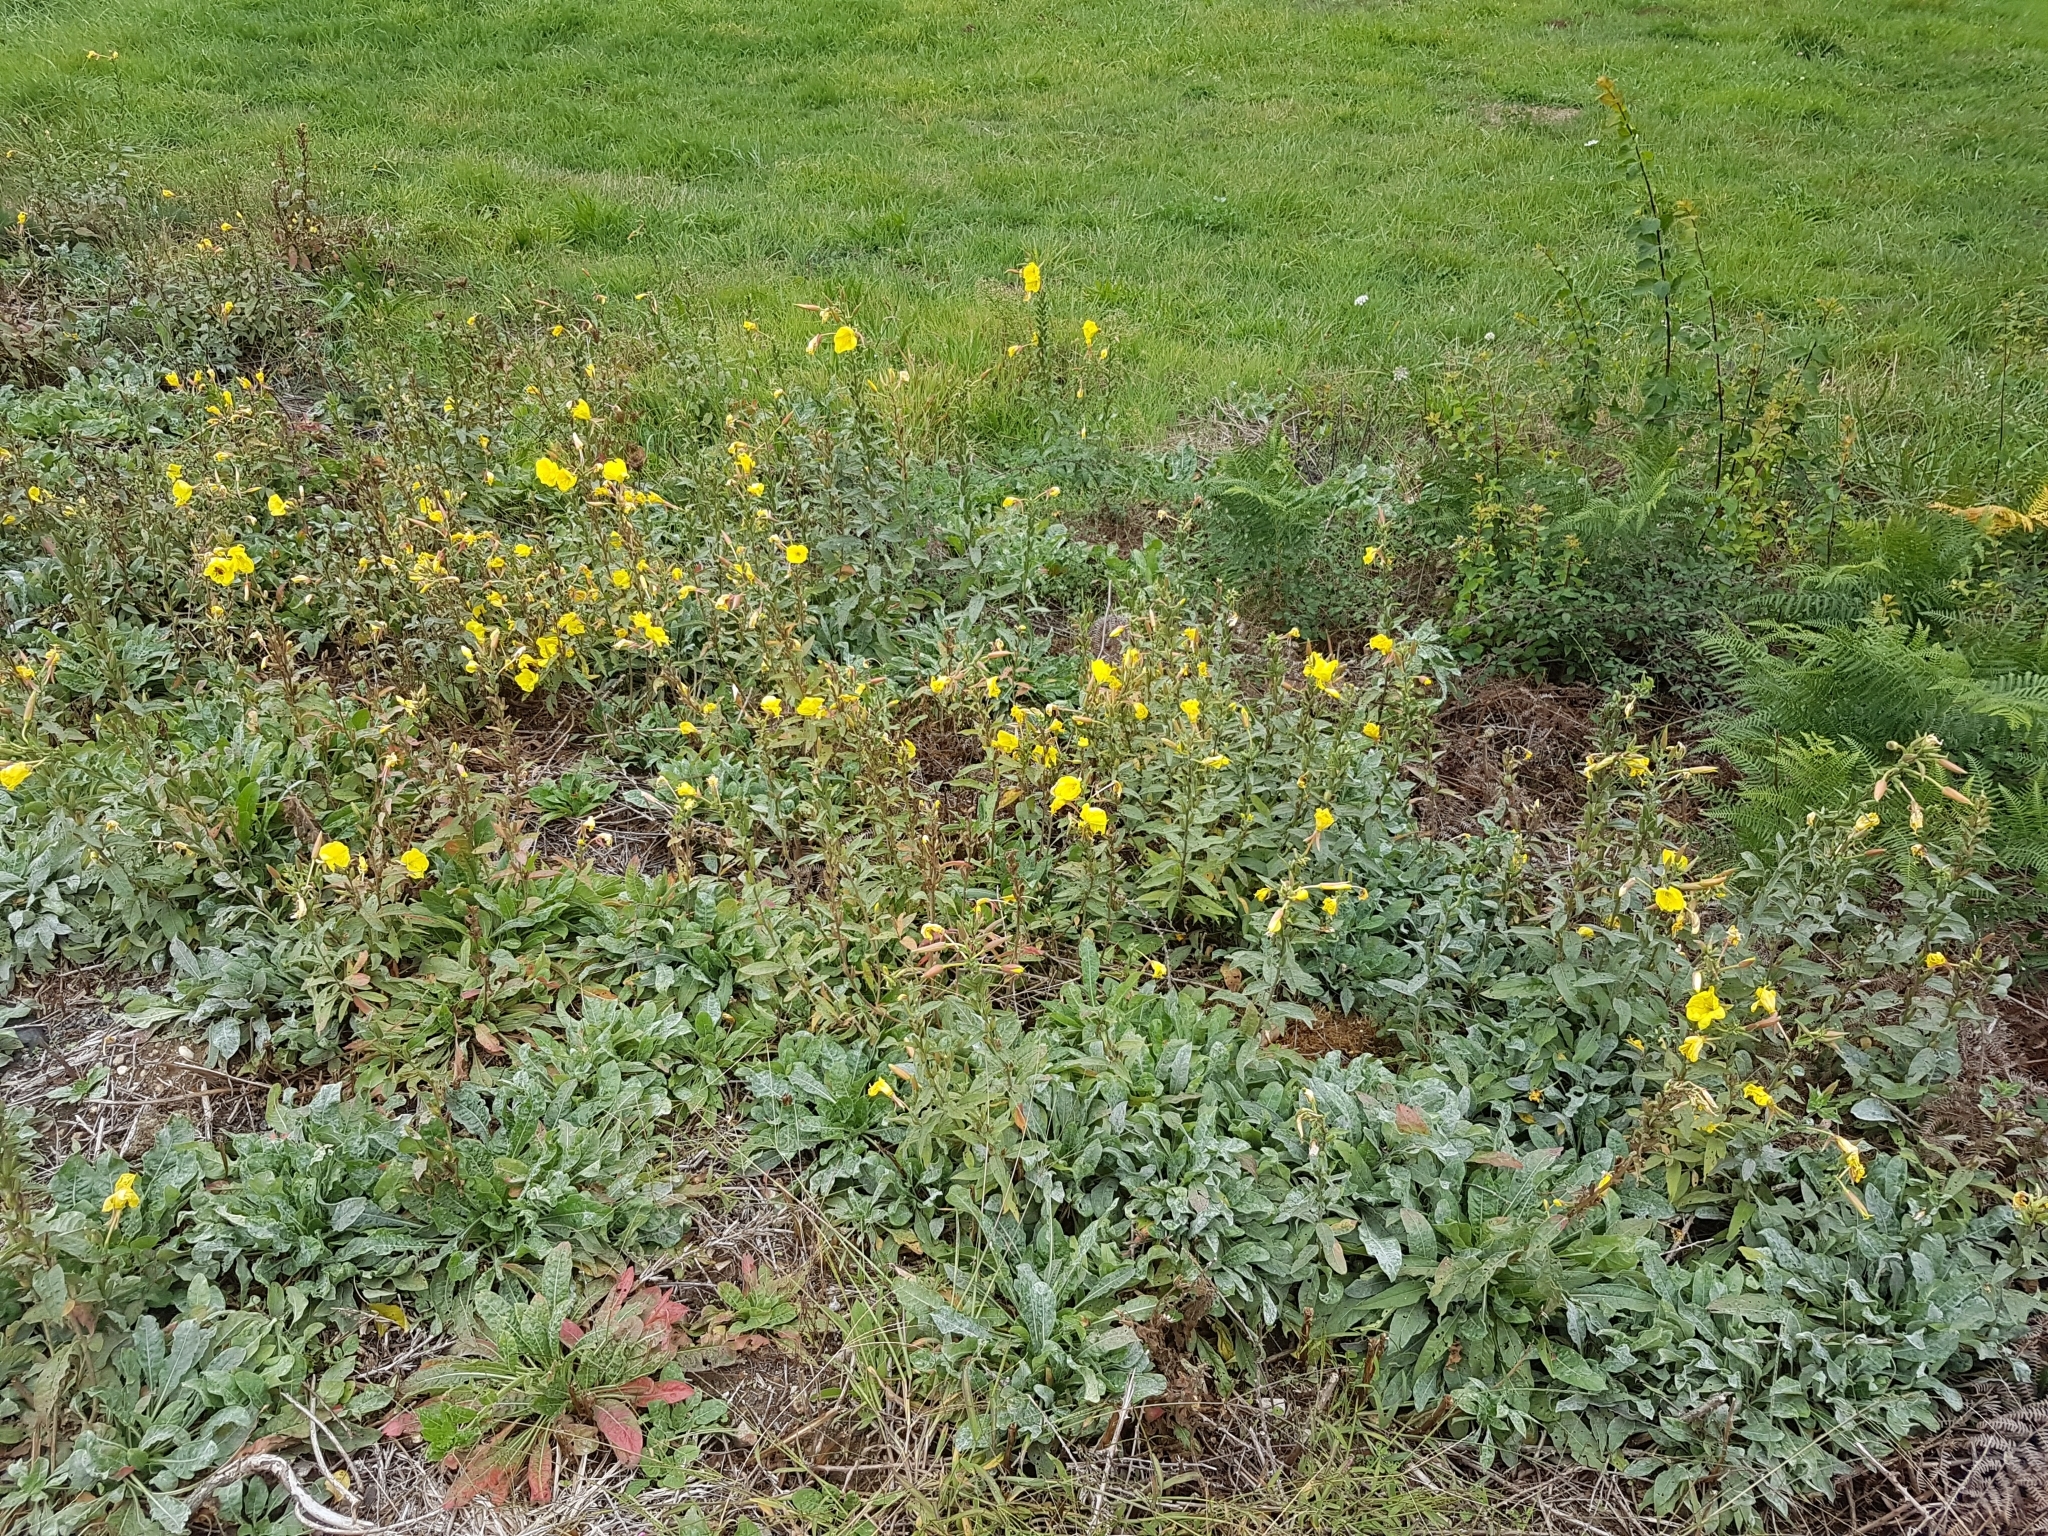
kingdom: Plantae
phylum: Tracheophyta
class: Magnoliopsida
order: Myrtales
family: Onagraceae
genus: Oenothera
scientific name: Oenothera glazioviana
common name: Large-flowered evening-primrose
